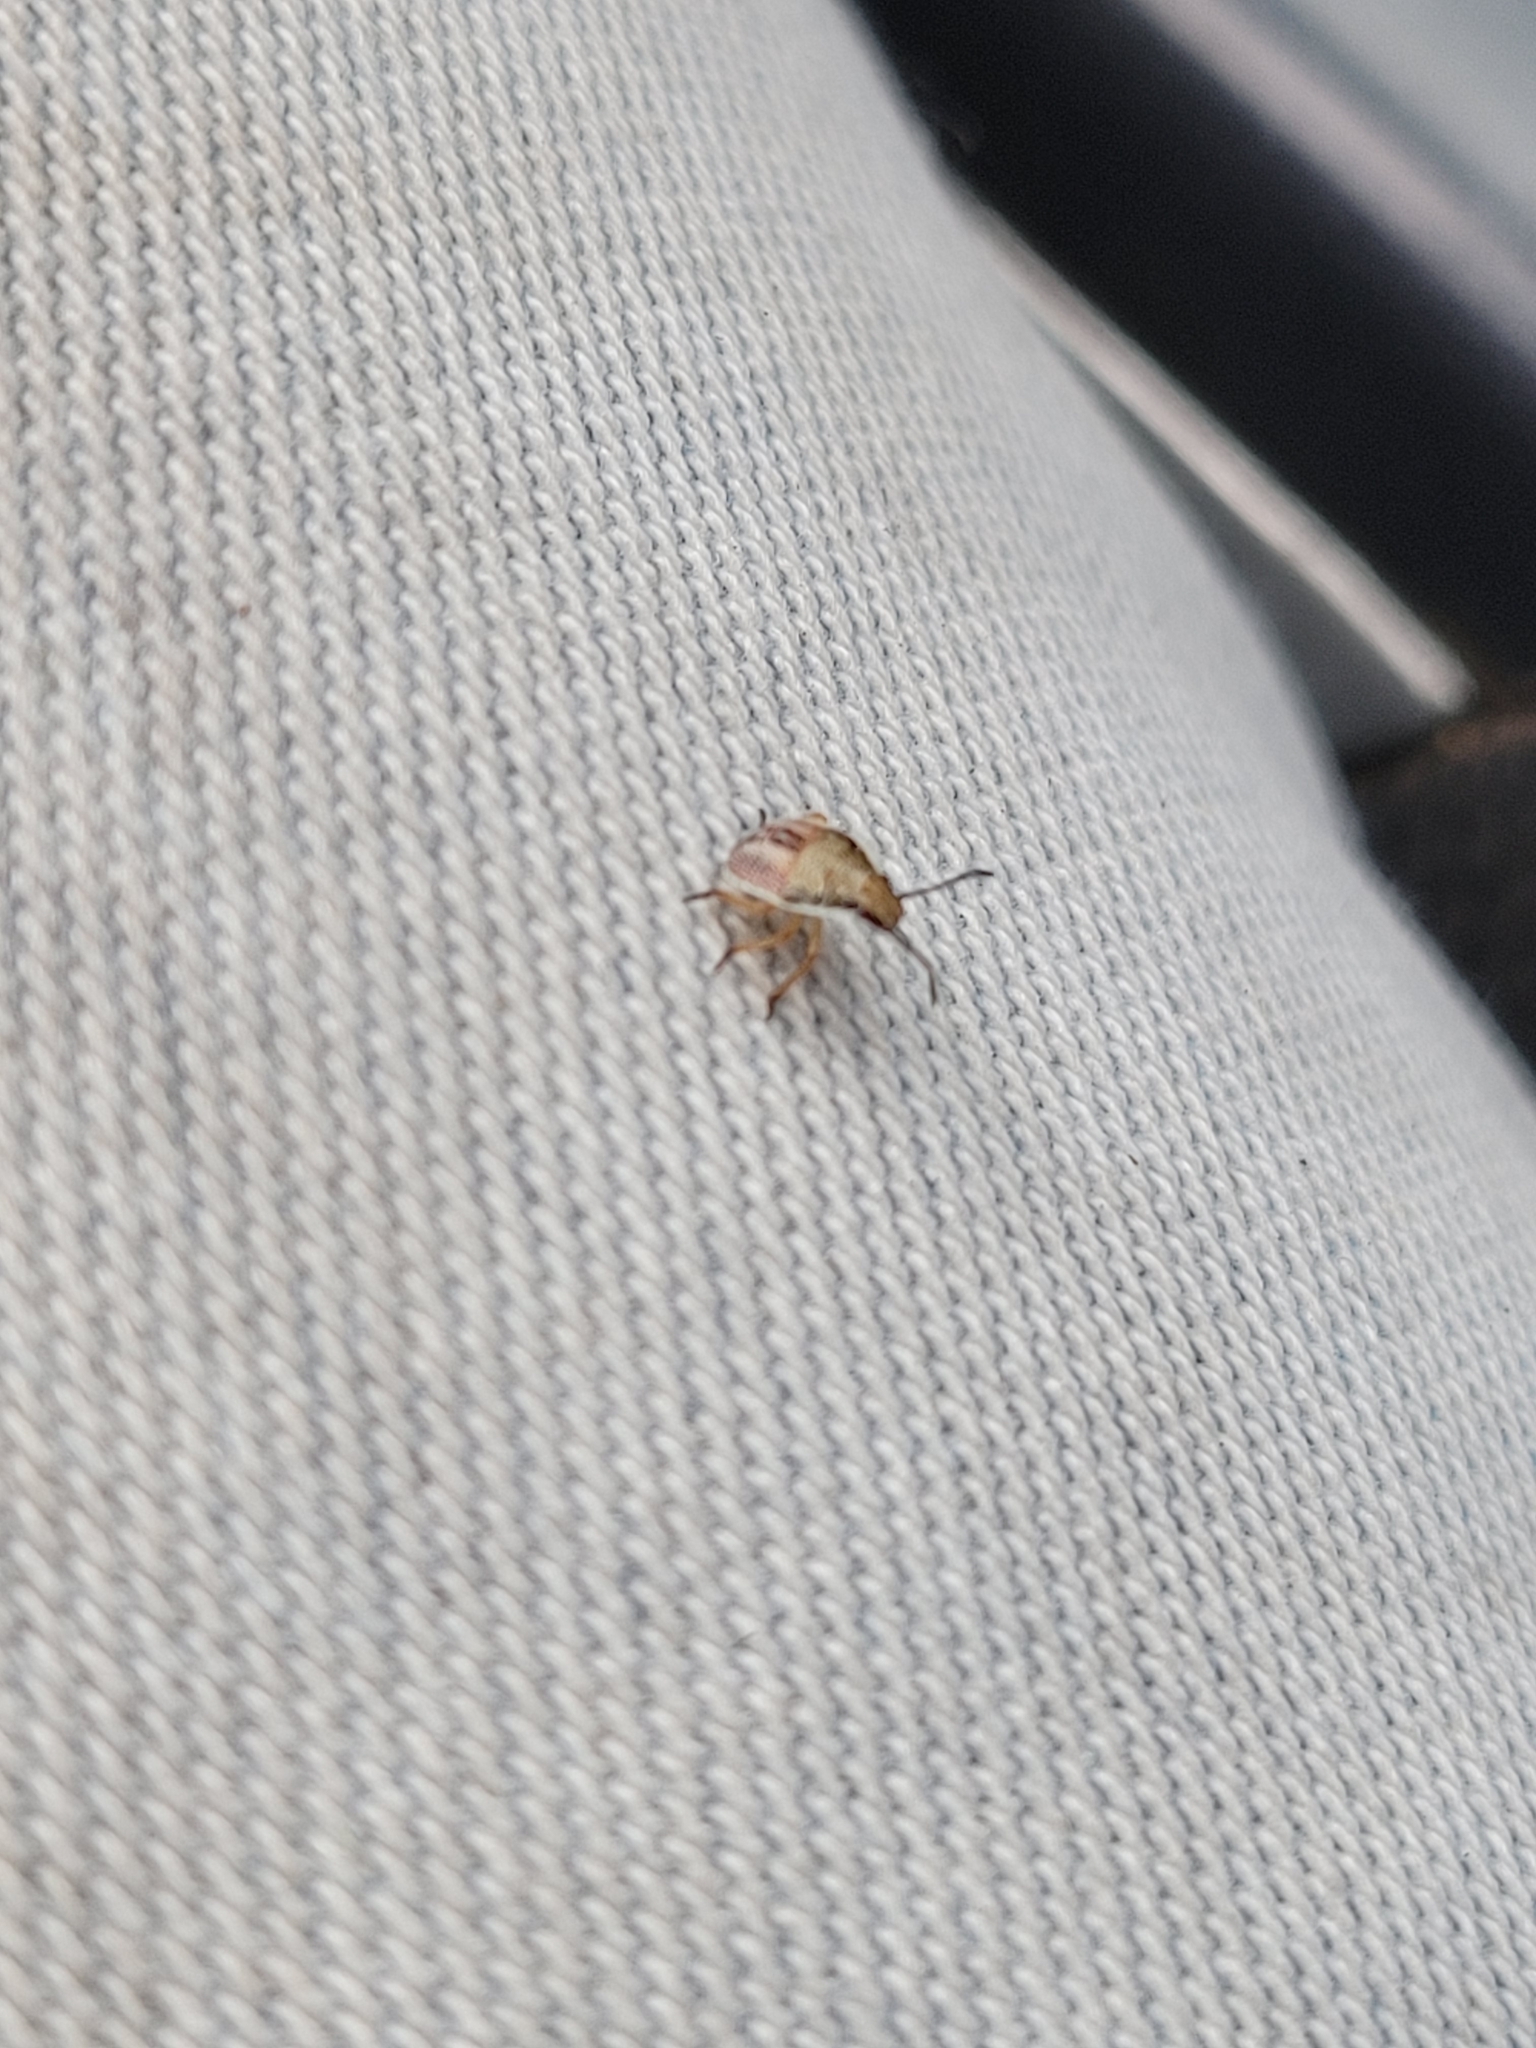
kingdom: Animalia
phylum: Arthropoda
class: Insecta
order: Hemiptera
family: Pentatomidae
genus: Oebalus
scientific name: Oebalus pugnax
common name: Rice stink bug
